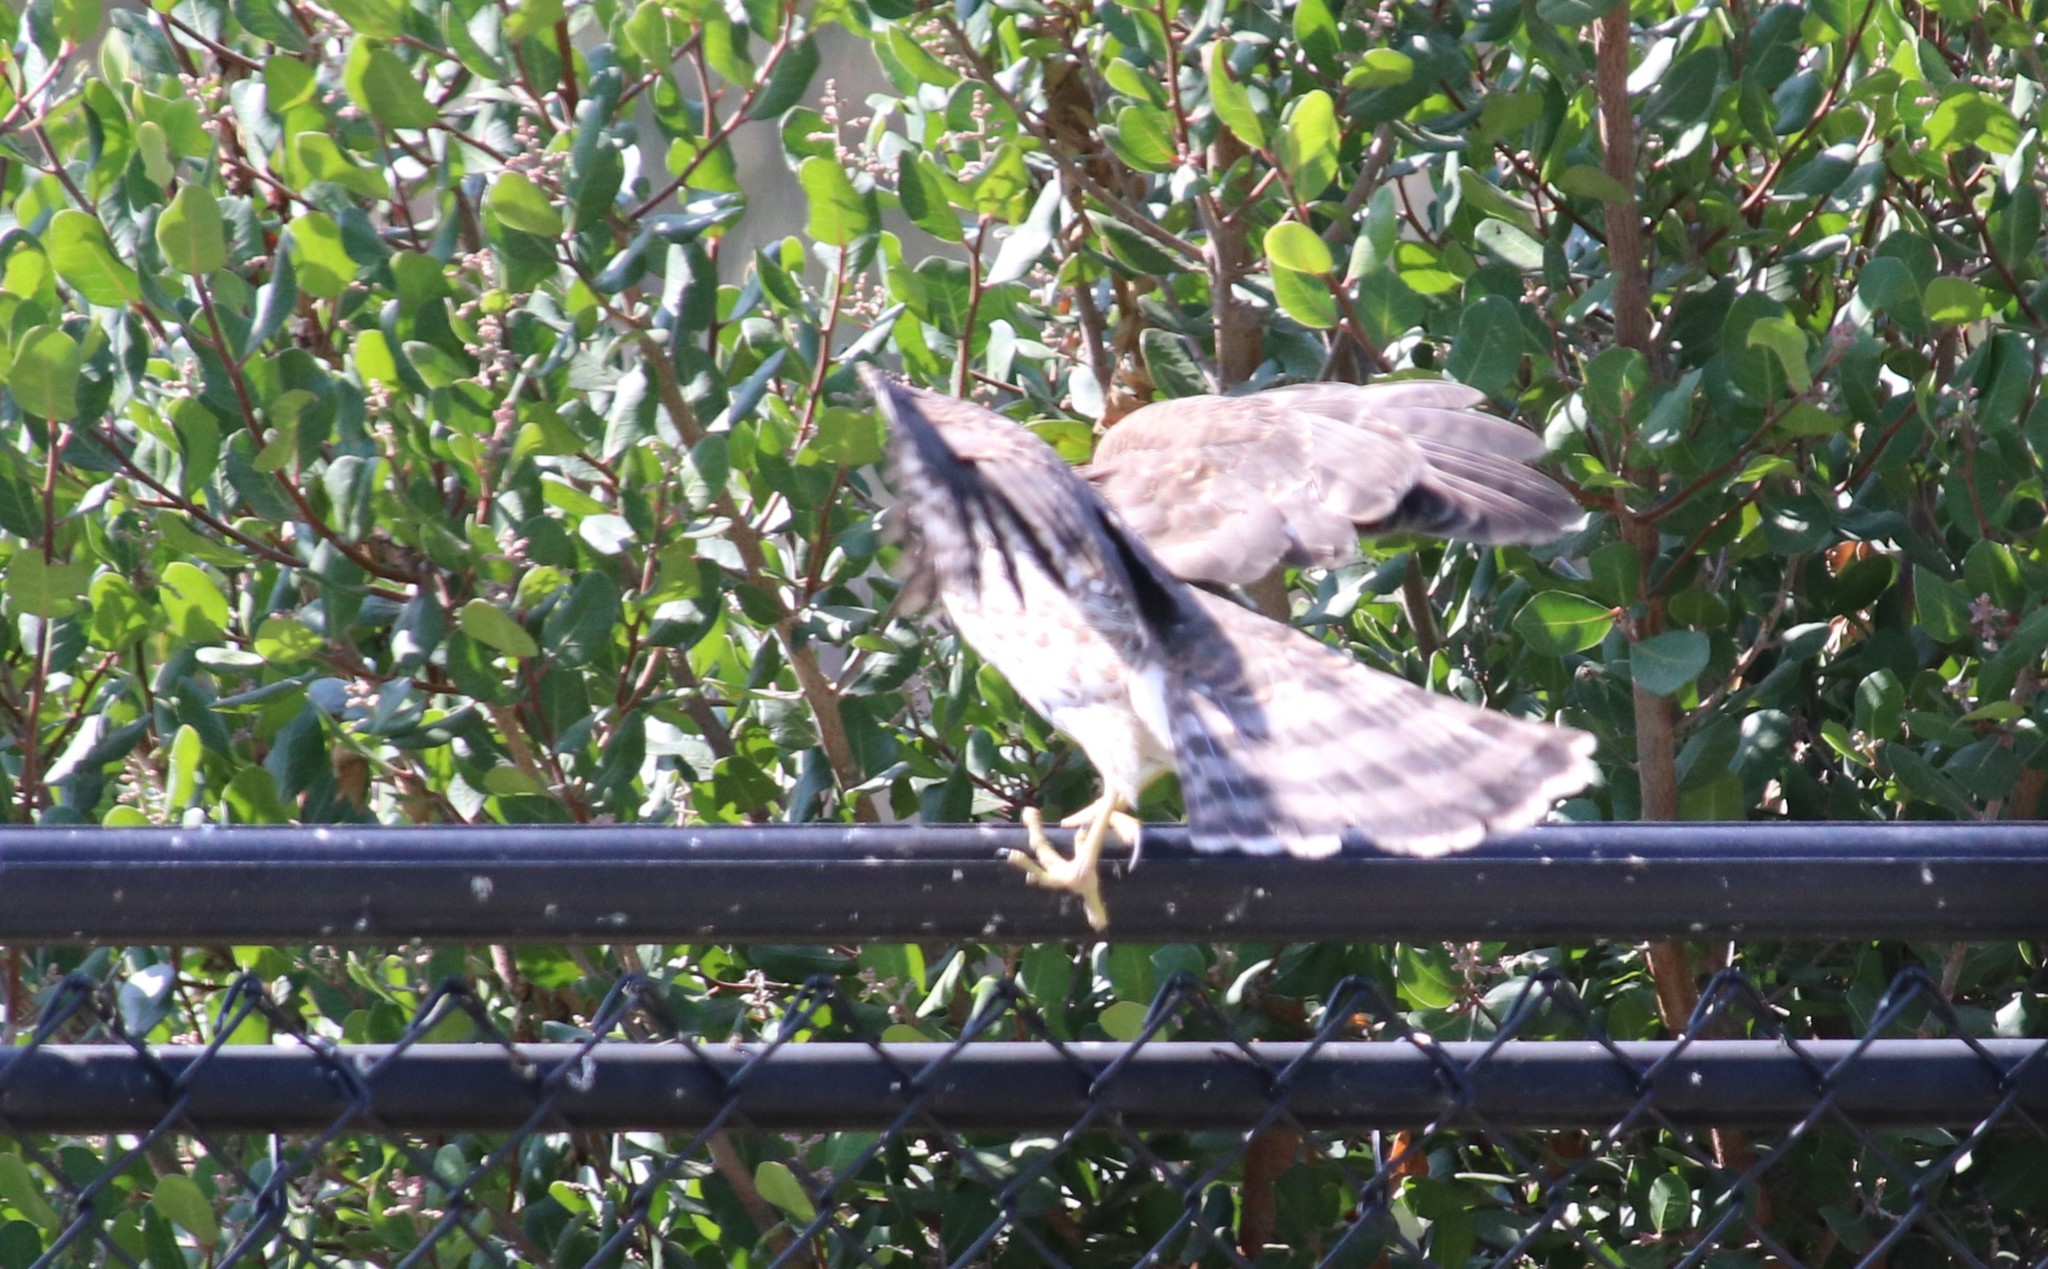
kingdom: Animalia
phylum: Chordata
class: Aves
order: Accipitriformes
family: Accipitridae
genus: Accipiter
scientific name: Accipiter cooperii
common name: Cooper's hawk
